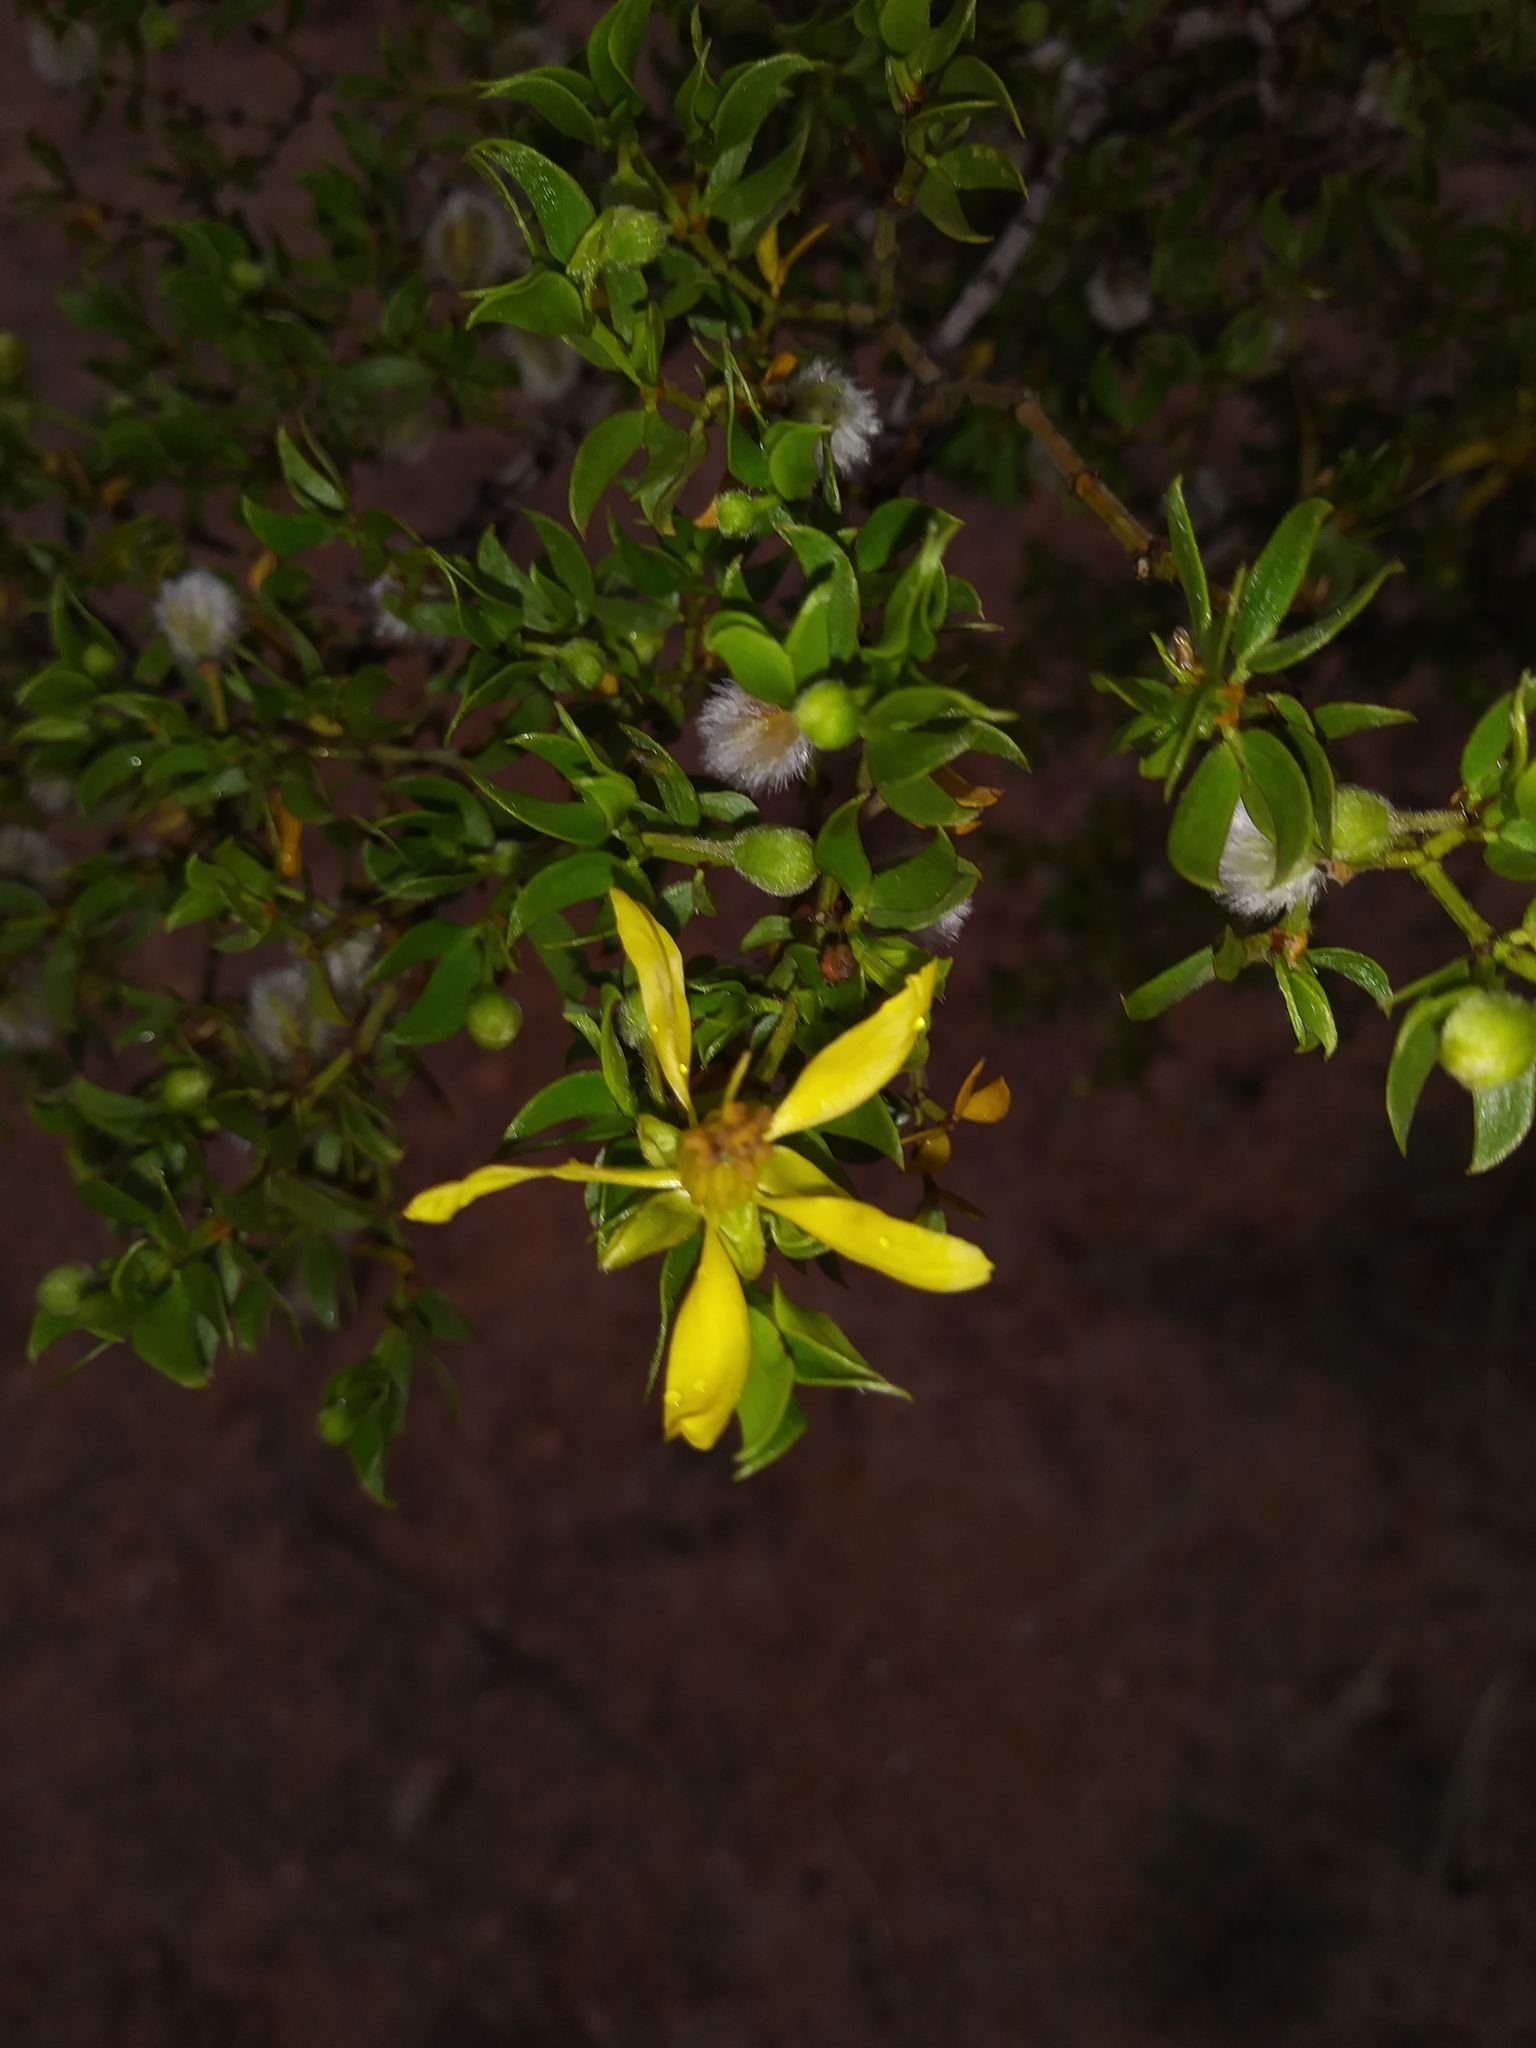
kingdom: Plantae
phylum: Tracheophyta
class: Magnoliopsida
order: Zygophyllales
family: Zygophyllaceae
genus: Larrea
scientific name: Larrea tridentata
